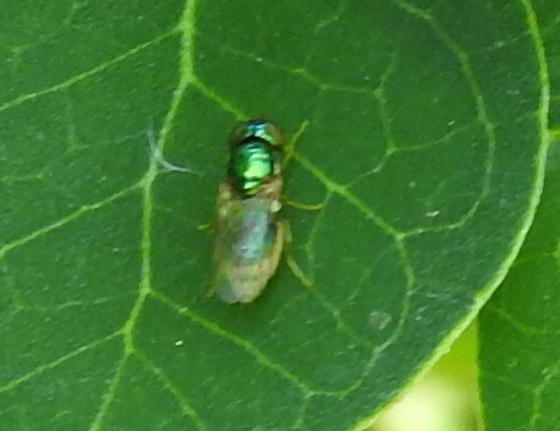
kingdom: Animalia
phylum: Arthropoda
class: Insecta
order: Diptera
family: Stratiomyidae
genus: Microchrysa
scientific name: Microchrysa
